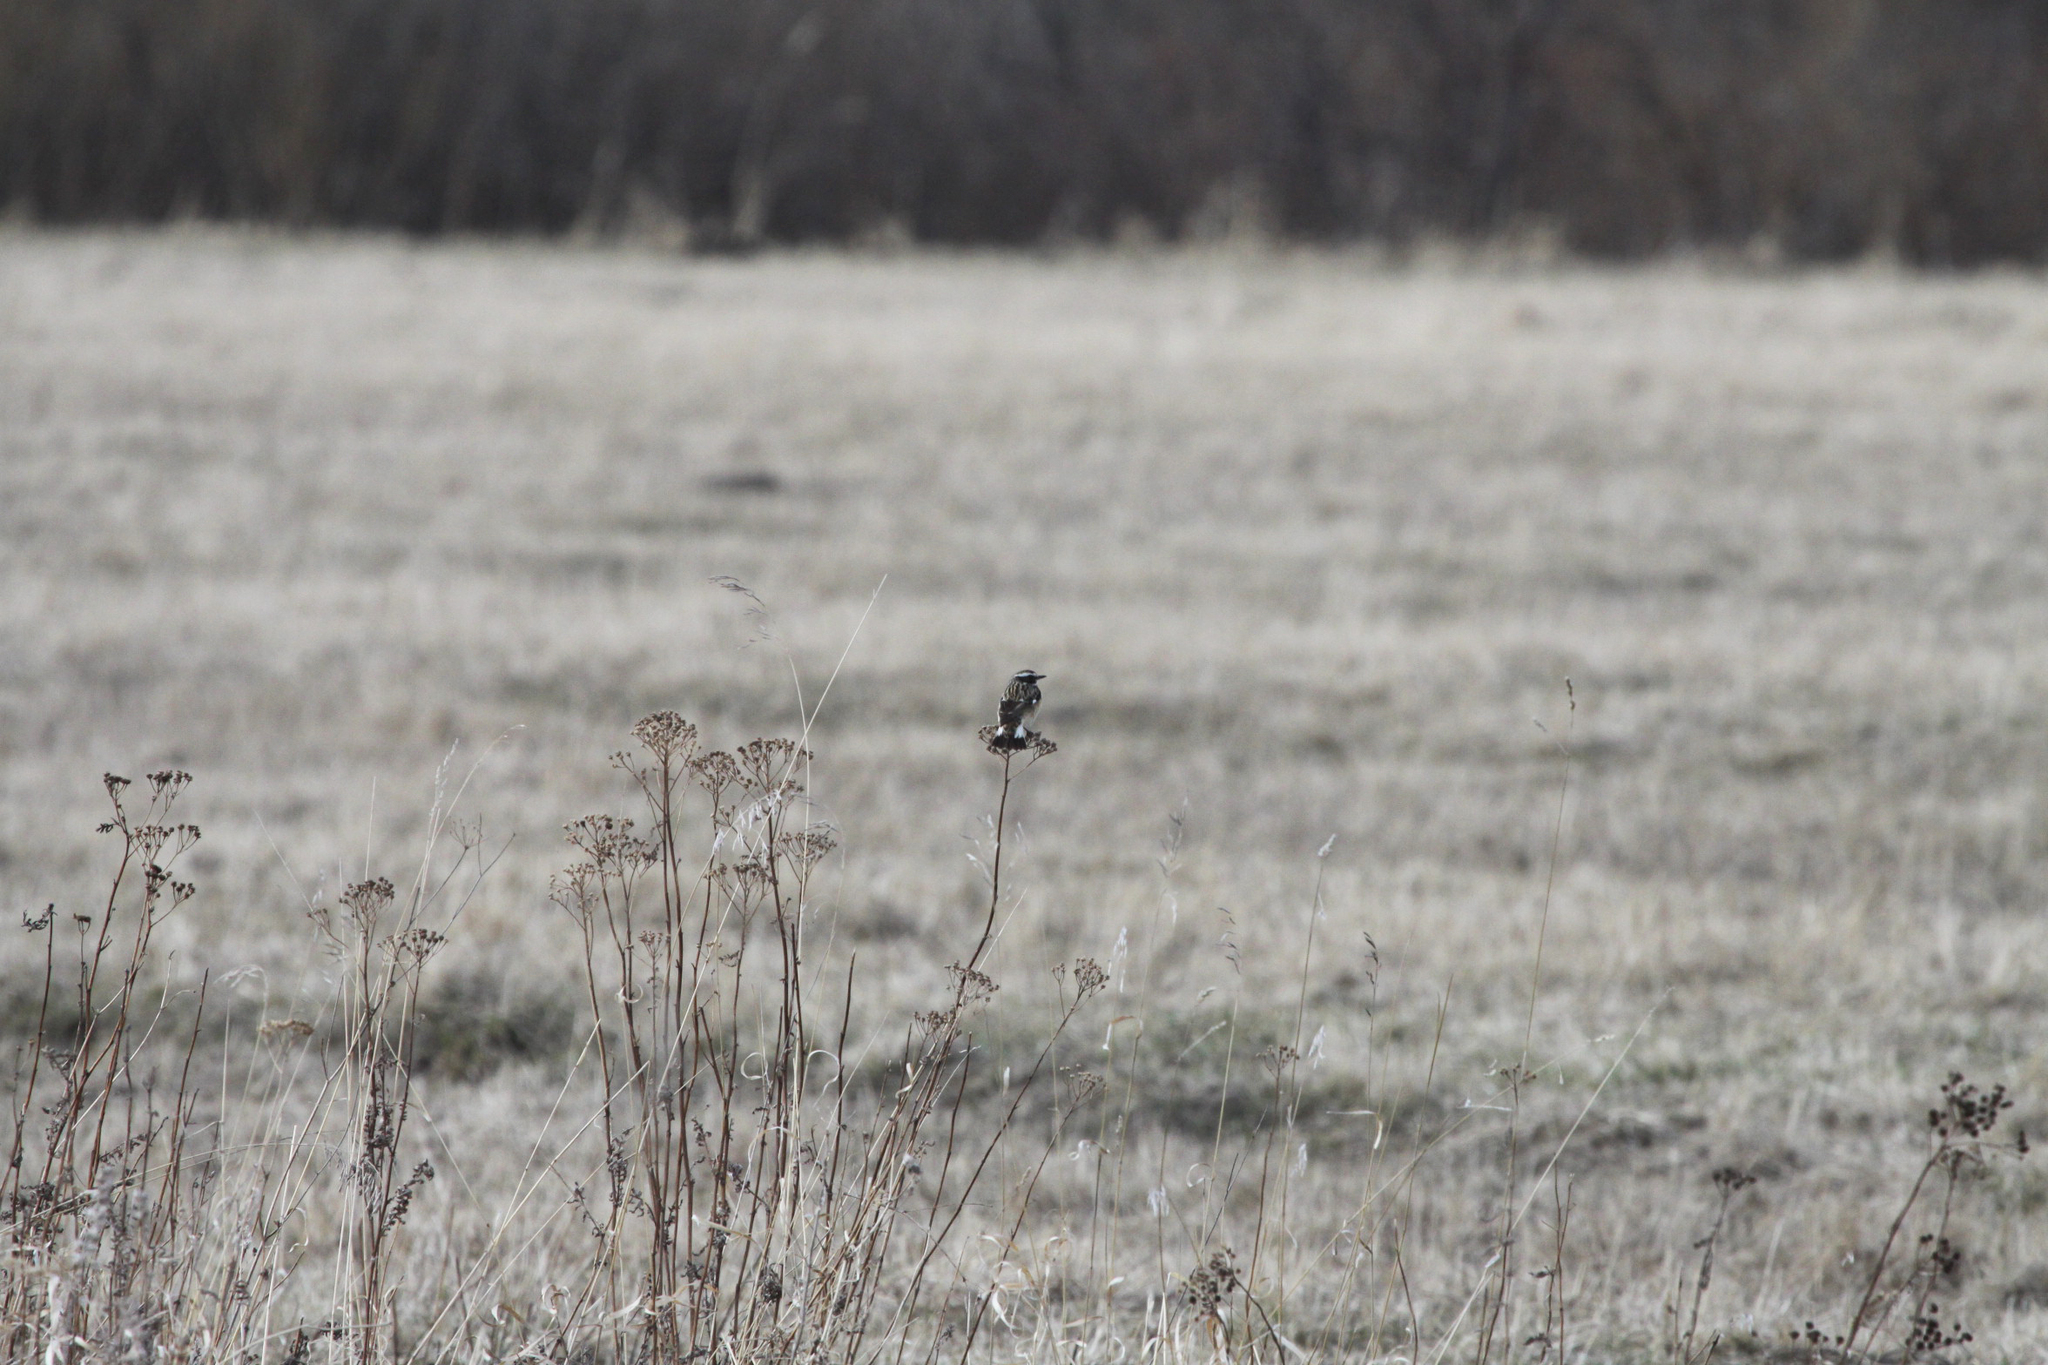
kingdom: Animalia
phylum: Chordata
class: Aves
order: Passeriformes
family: Muscicapidae
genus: Saxicola
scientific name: Saxicola rubetra
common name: Whinchat
